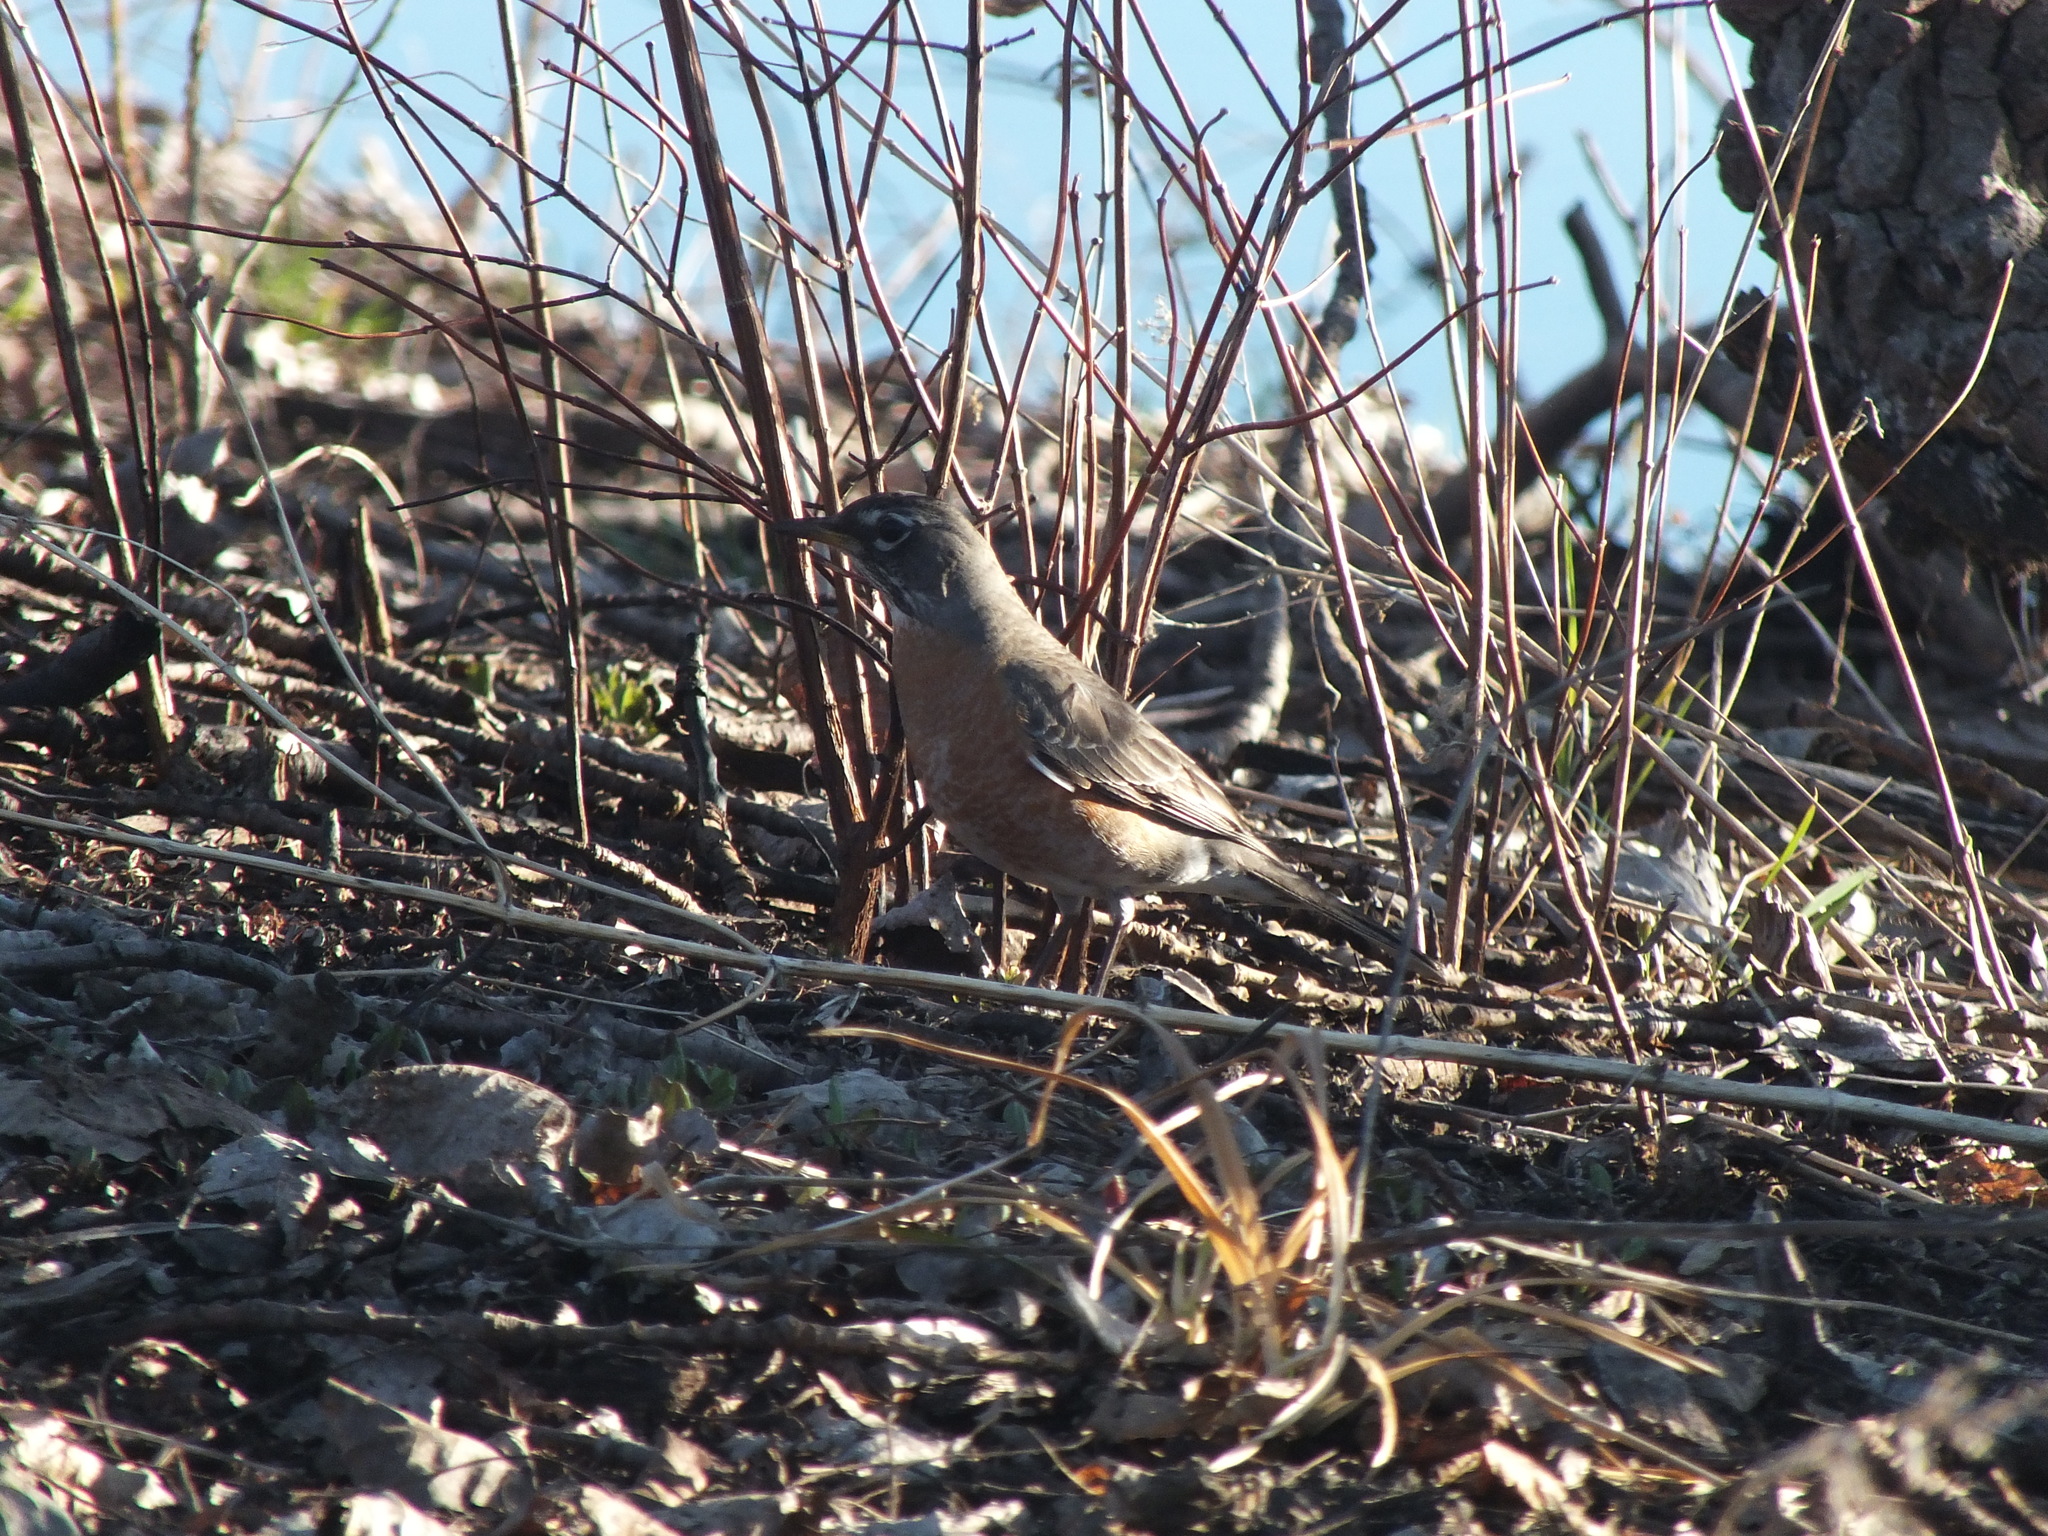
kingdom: Animalia
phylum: Chordata
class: Aves
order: Passeriformes
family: Turdidae
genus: Turdus
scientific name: Turdus migratorius
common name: American robin
